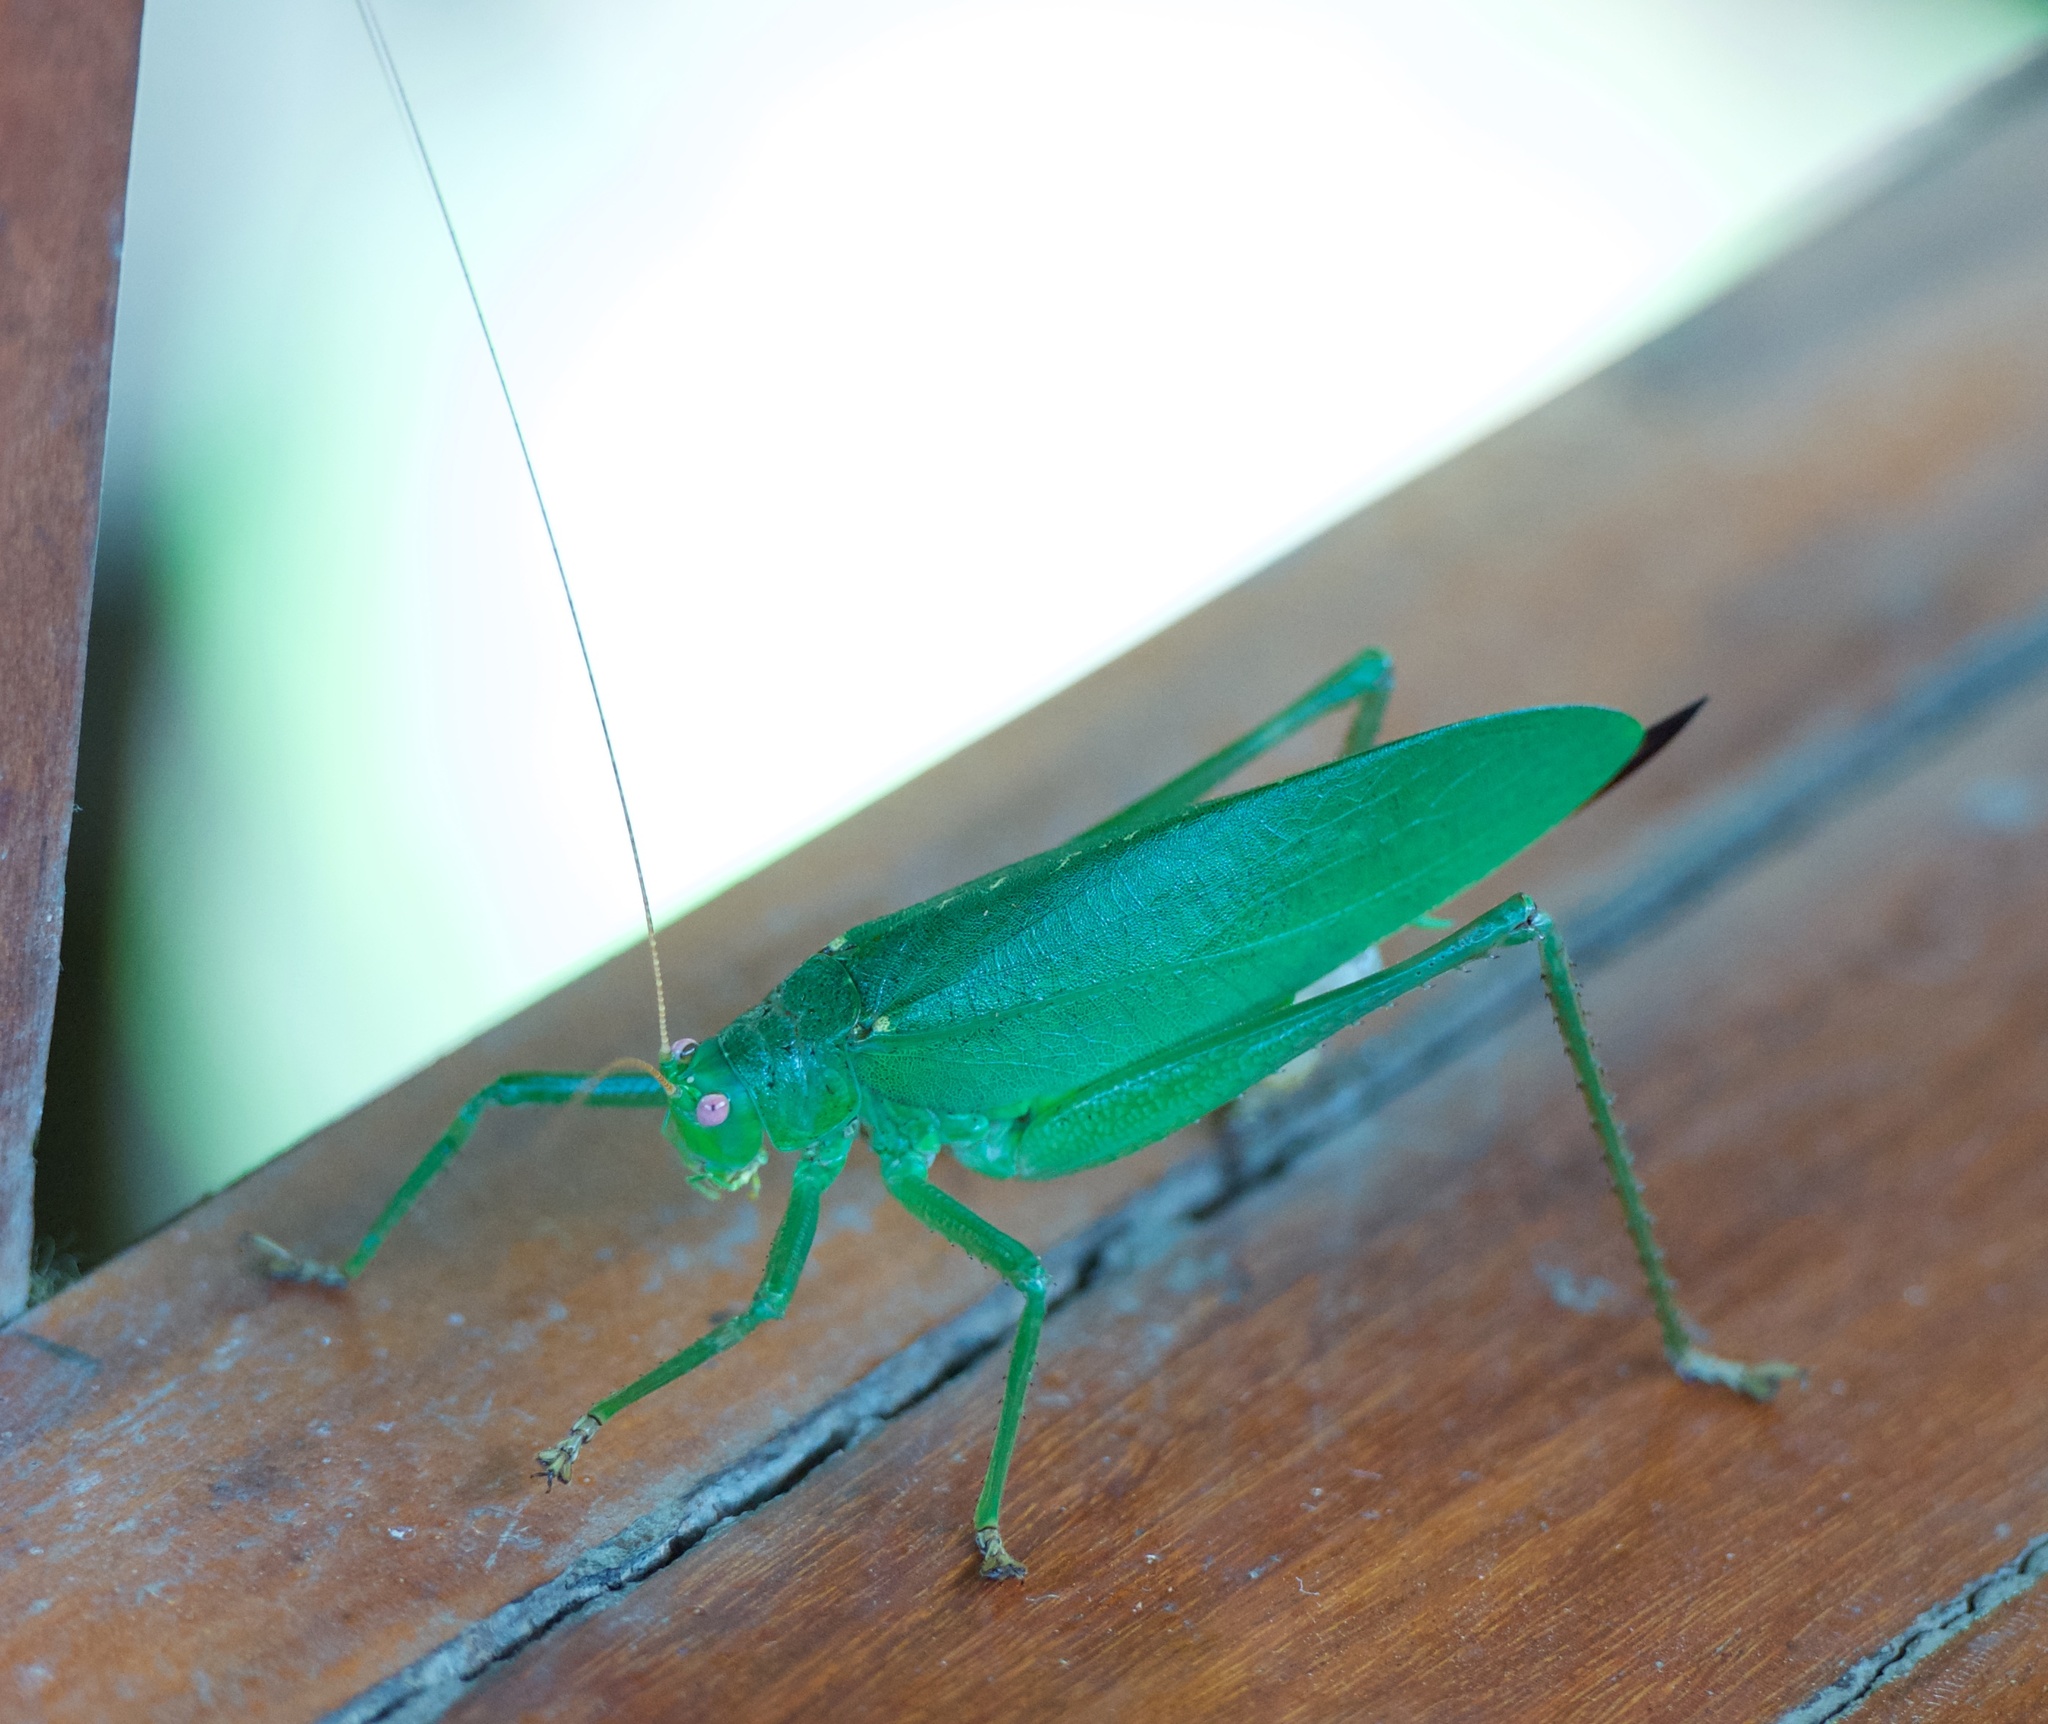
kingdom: Animalia
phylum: Arthropoda
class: Insecta
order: Orthoptera
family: Tettigoniidae
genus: Diophanes
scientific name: Diophanes rosescens
